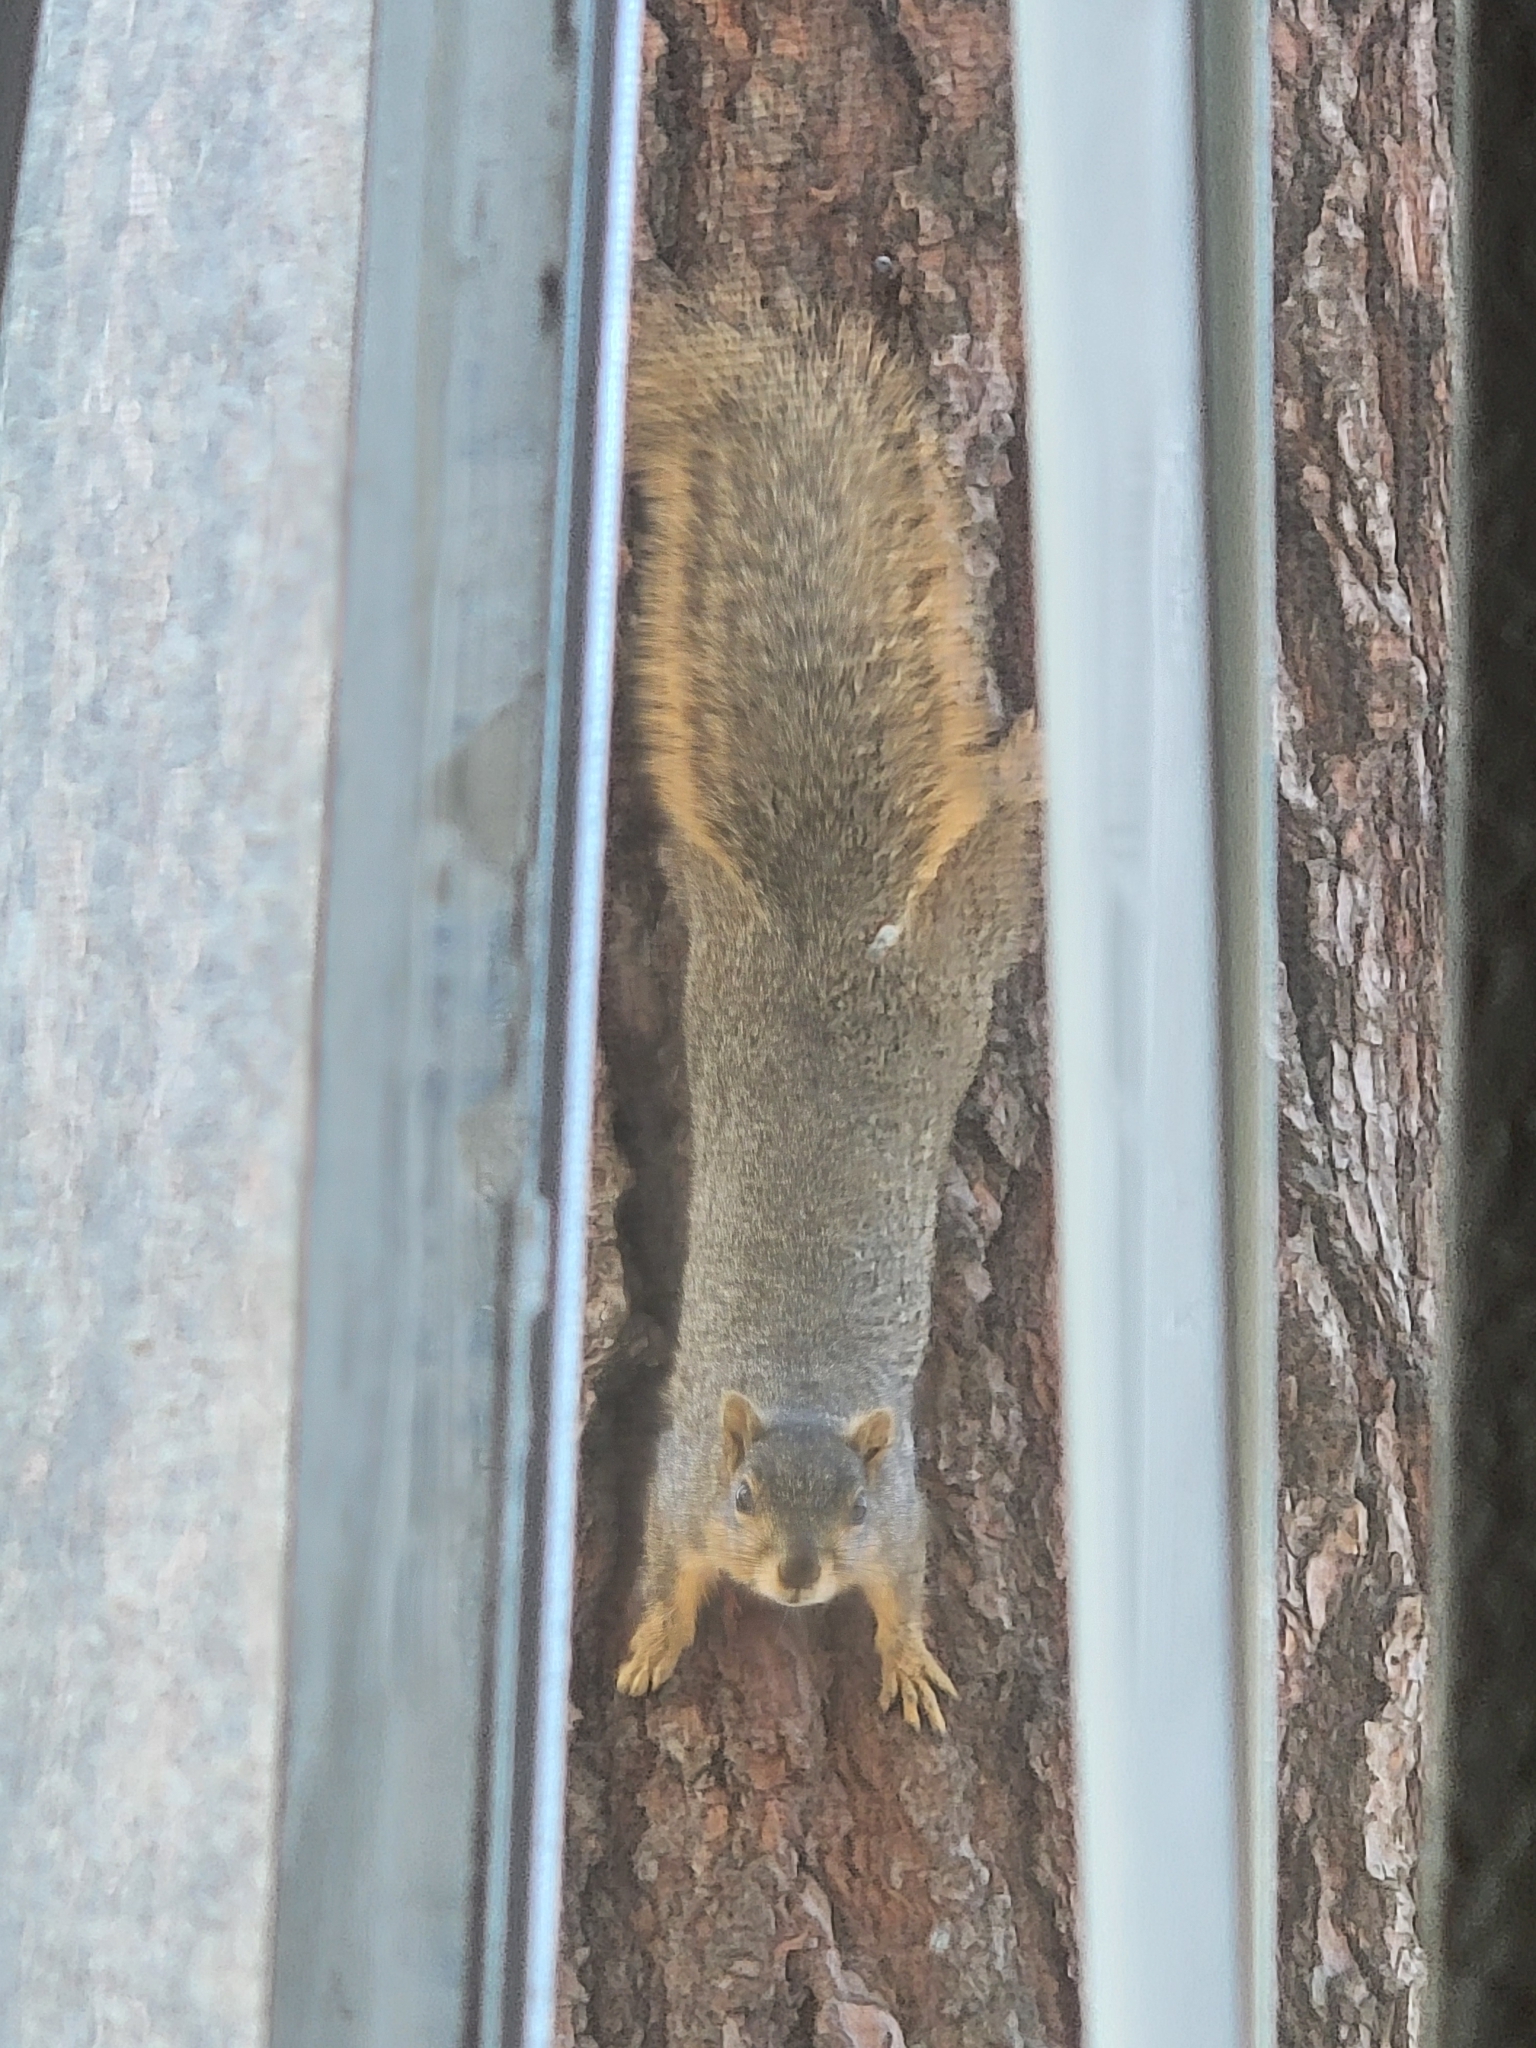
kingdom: Animalia
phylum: Chordata
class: Mammalia
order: Rodentia
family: Sciuridae
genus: Sciurus
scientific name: Sciurus niger
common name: Fox squirrel
